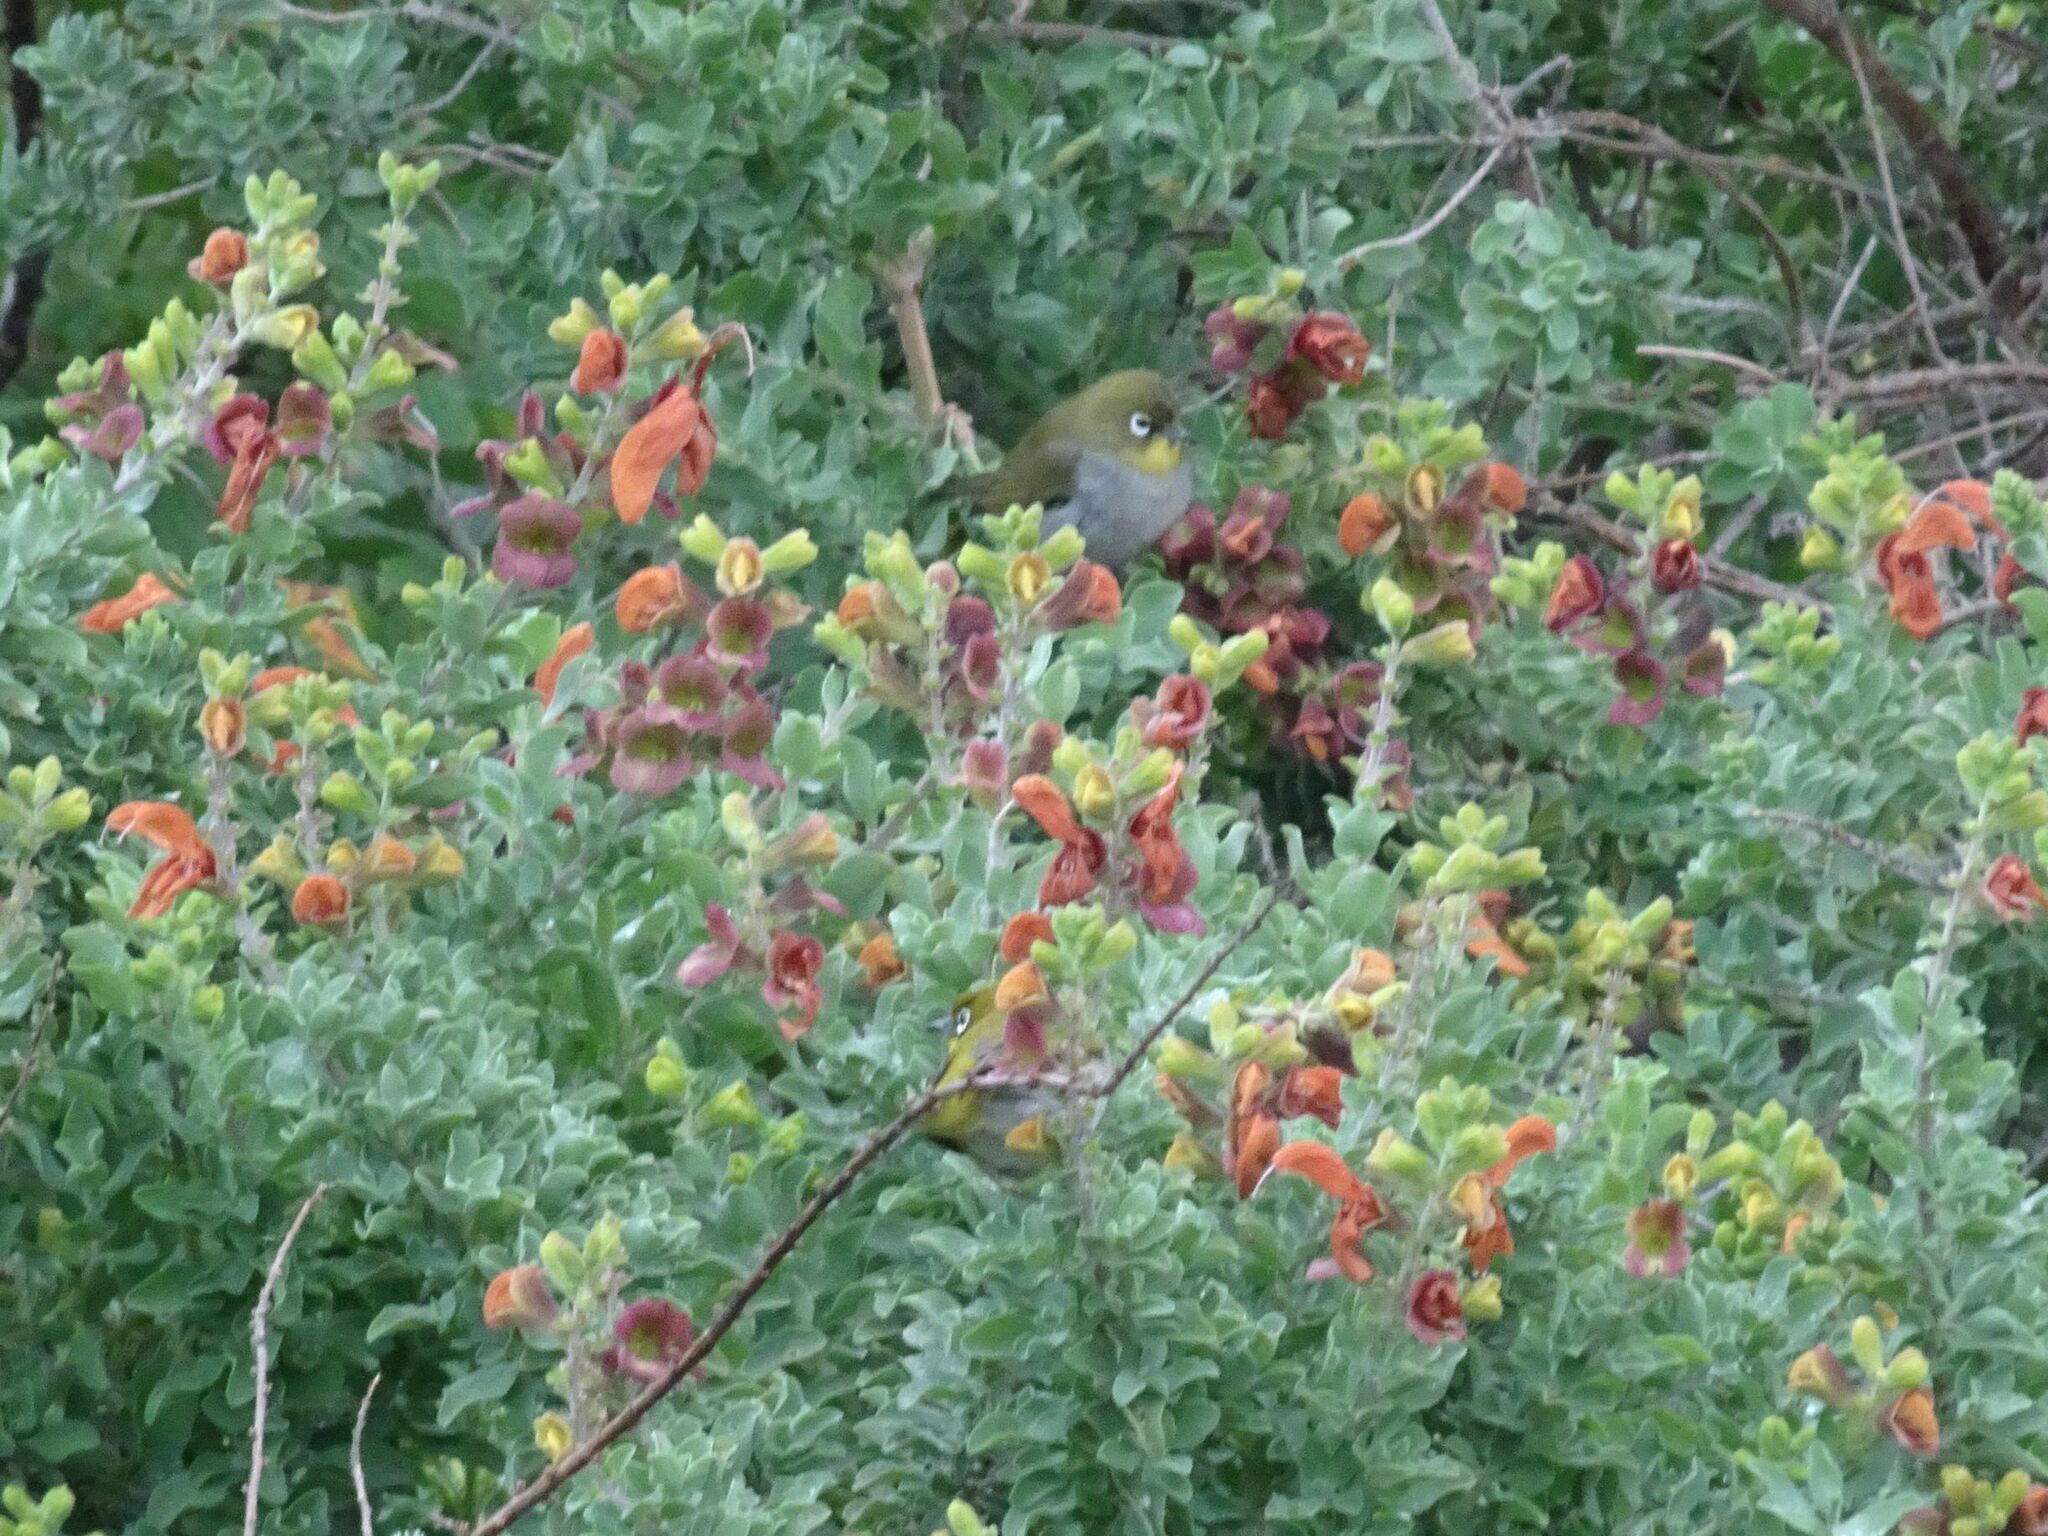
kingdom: Animalia
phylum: Chordata
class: Aves
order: Passeriformes
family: Zosteropidae
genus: Zosterops
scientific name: Zosterops virens
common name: Cape white-eye
